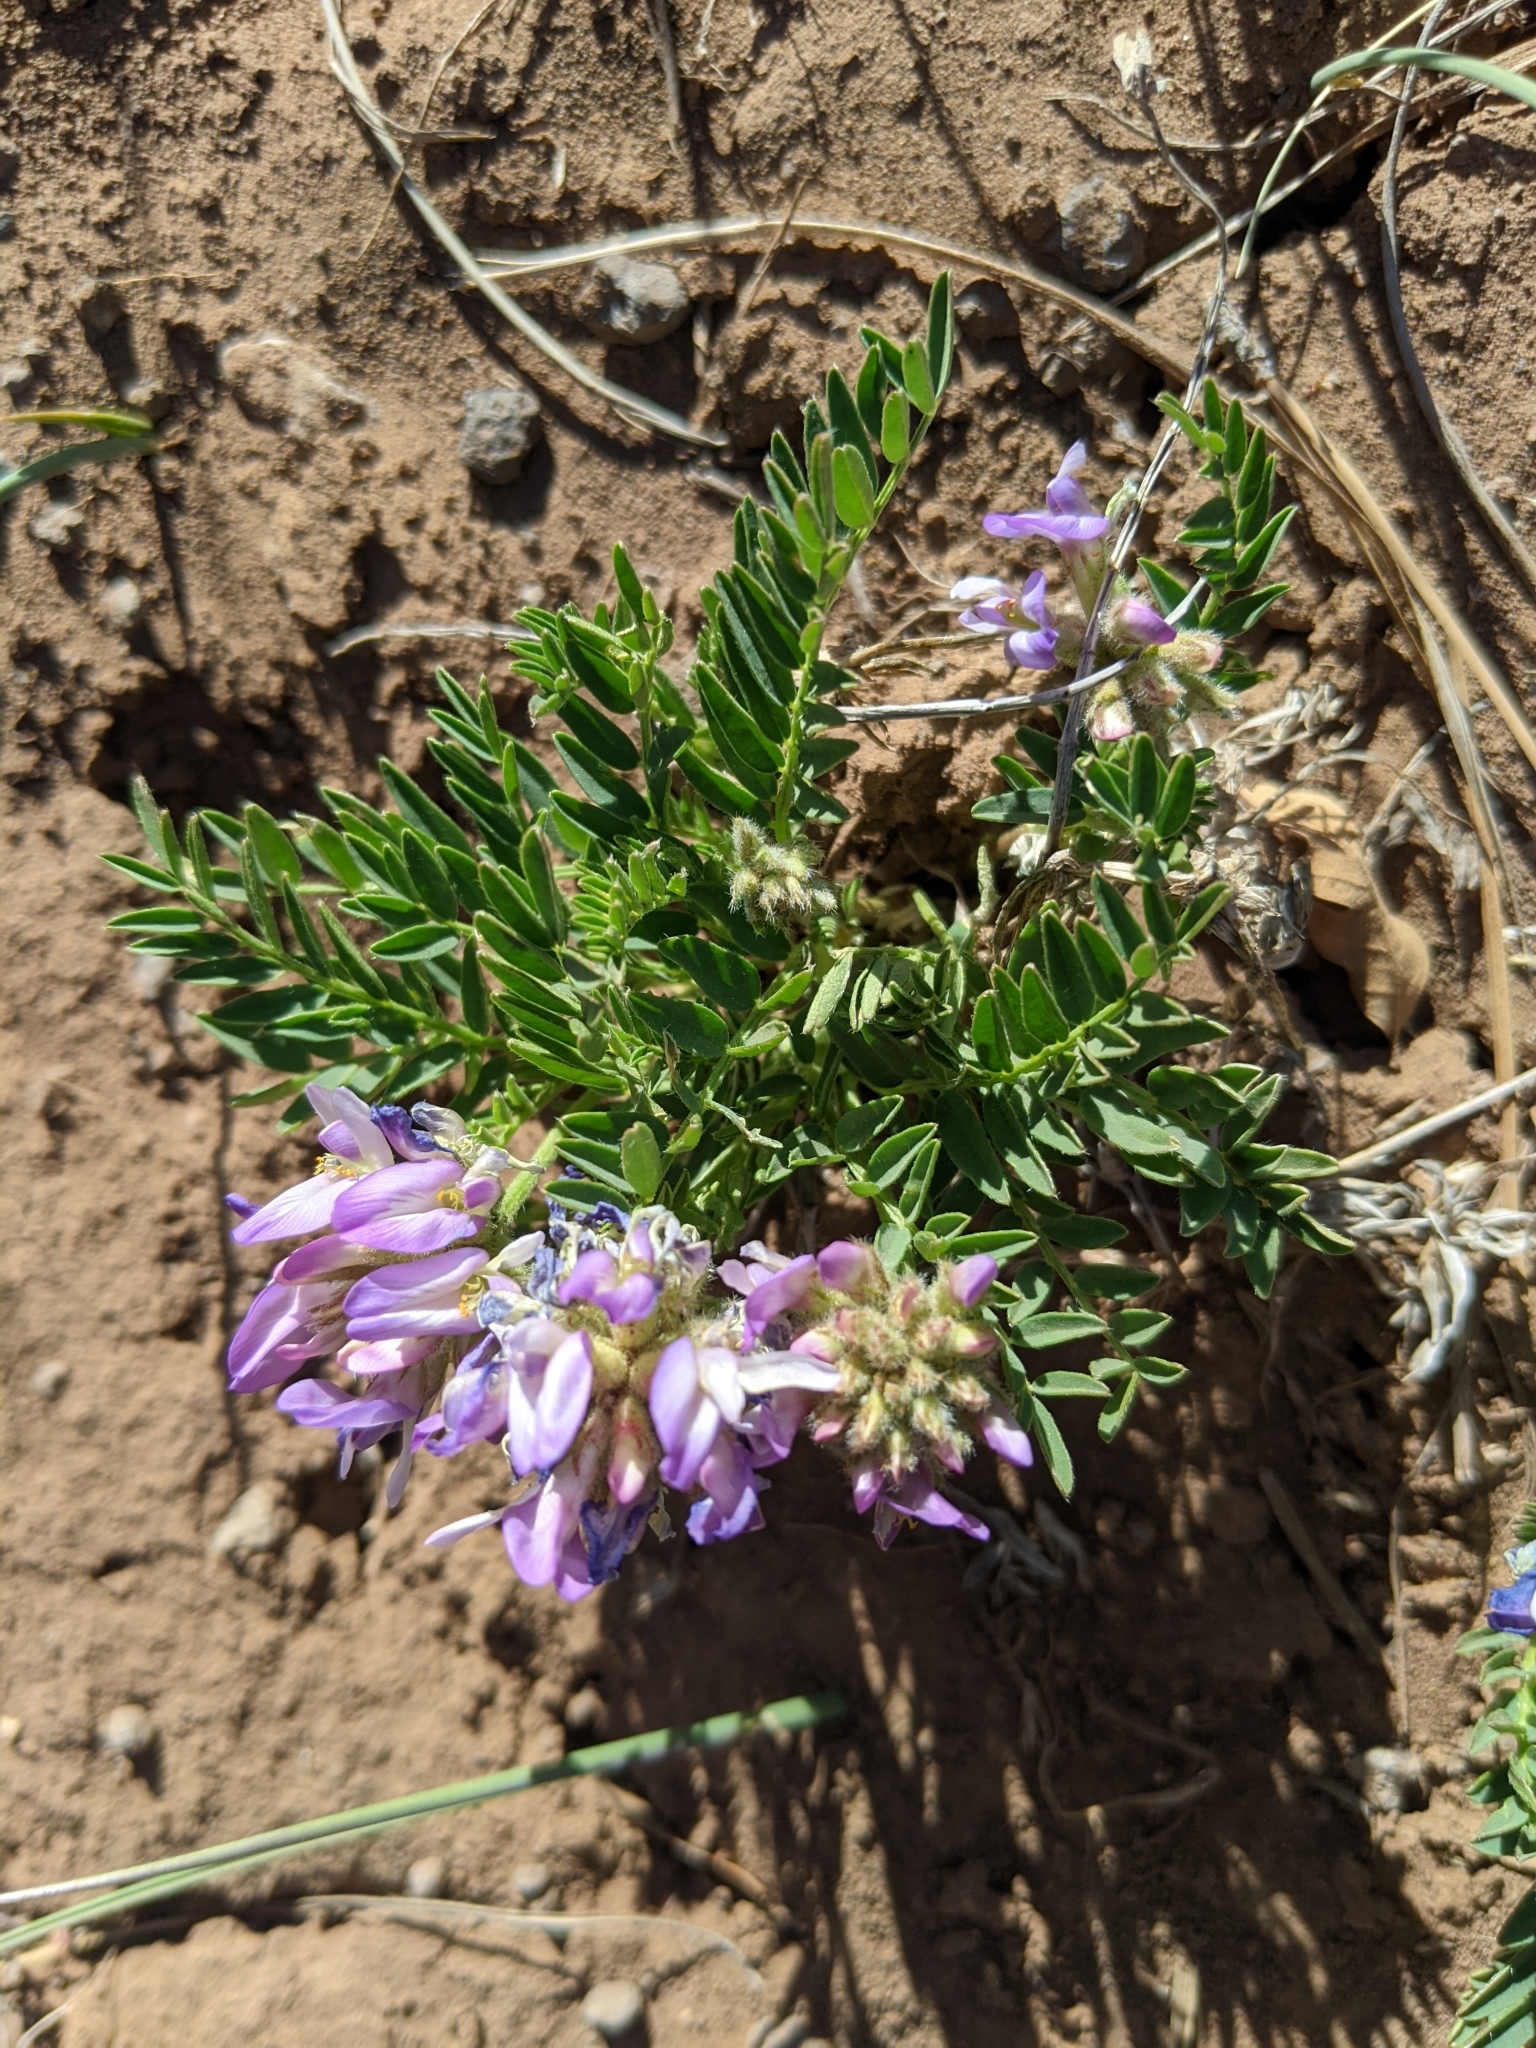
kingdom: Plantae
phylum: Tracheophyta
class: Magnoliopsida
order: Fabales
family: Fabaceae
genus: Astragalus
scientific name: Astragalus agrestis
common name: Field milk-vetch
